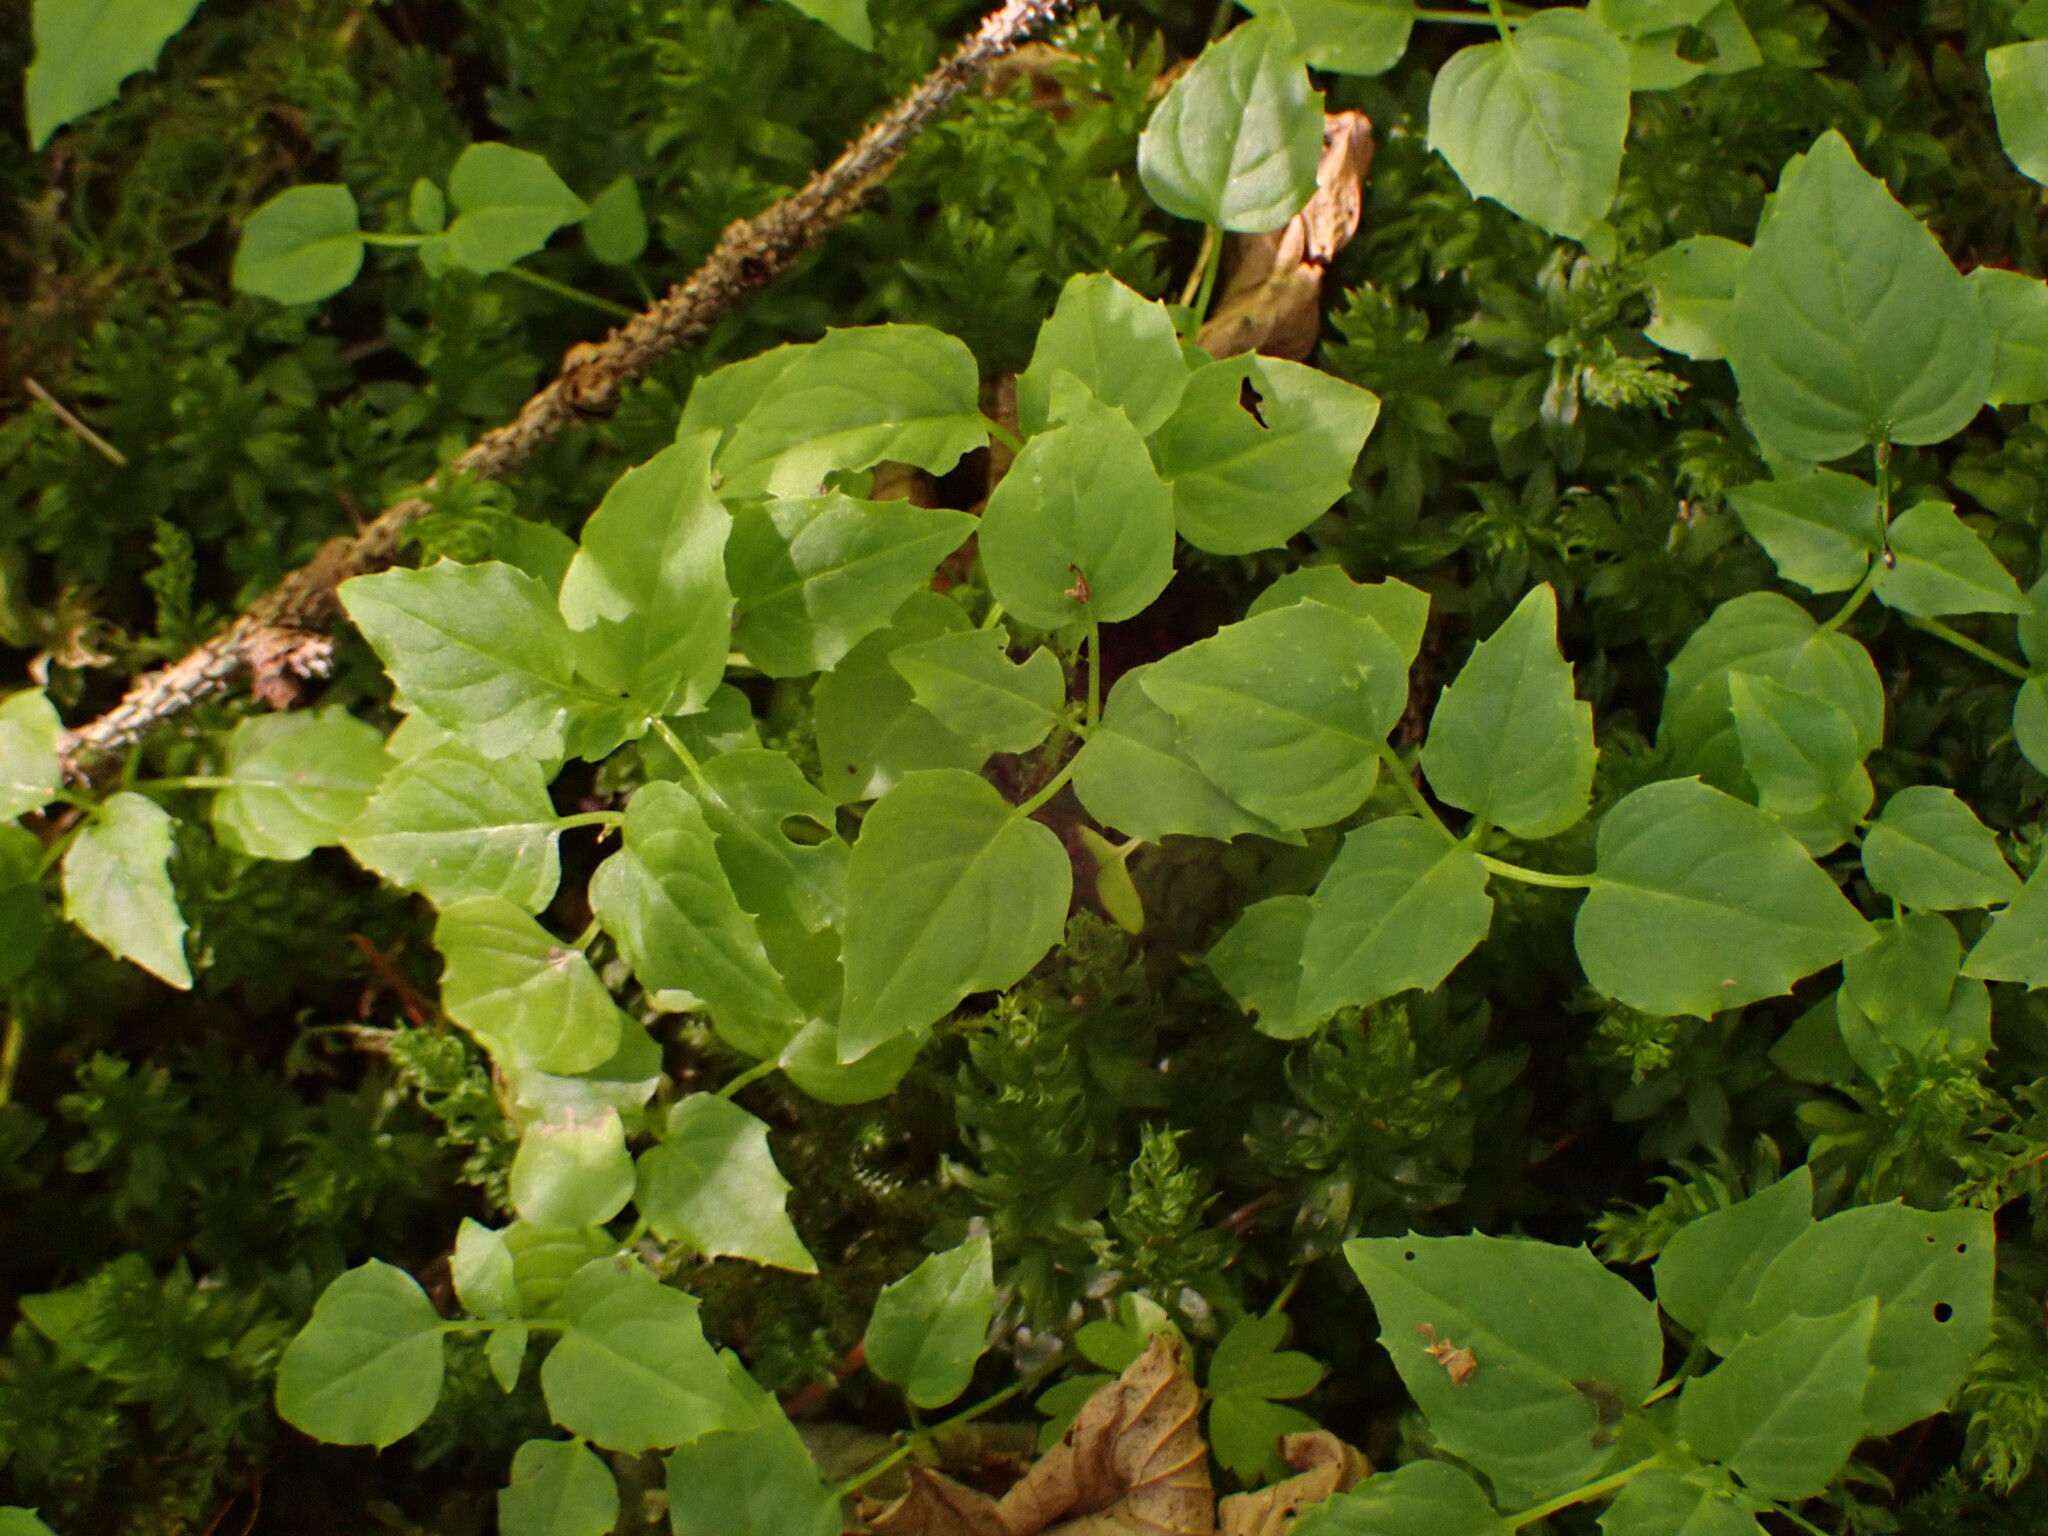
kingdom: Plantae
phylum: Tracheophyta
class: Magnoliopsida
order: Myrtales
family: Onagraceae
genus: Circaea
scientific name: Circaea alpina
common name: Alpine enchanter's-nightshade
